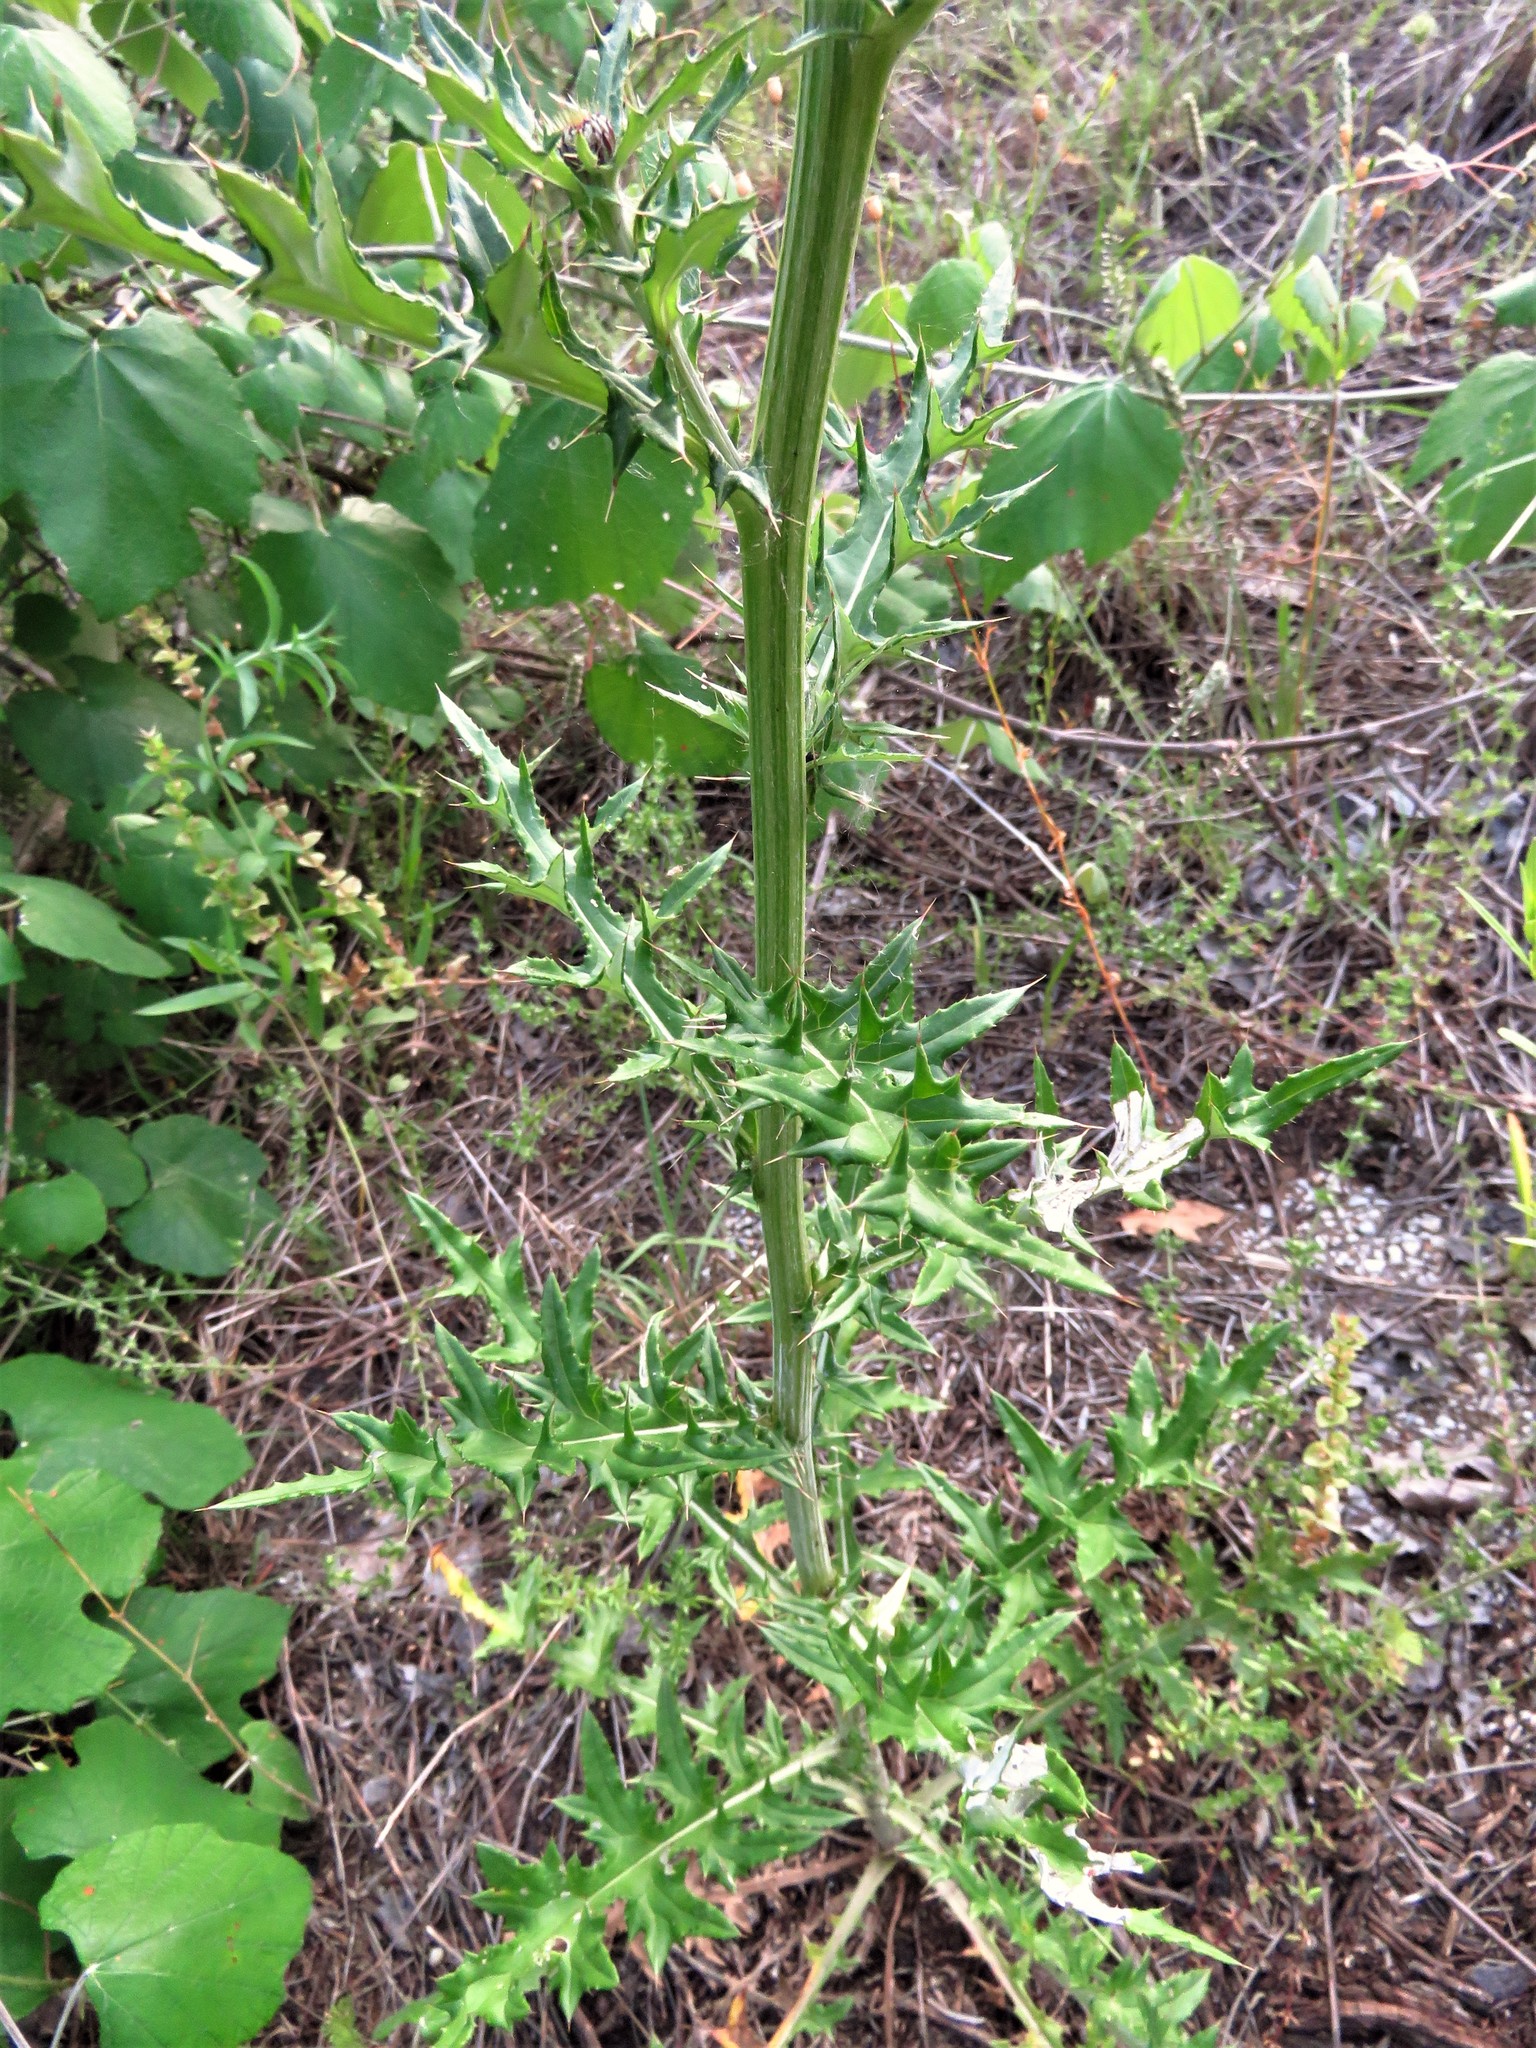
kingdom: Plantae
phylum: Tracheophyta
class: Magnoliopsida
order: Asterales
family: Asteraceae
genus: Cirsium
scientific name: Cirsium texanum
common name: Texas purple thistle
